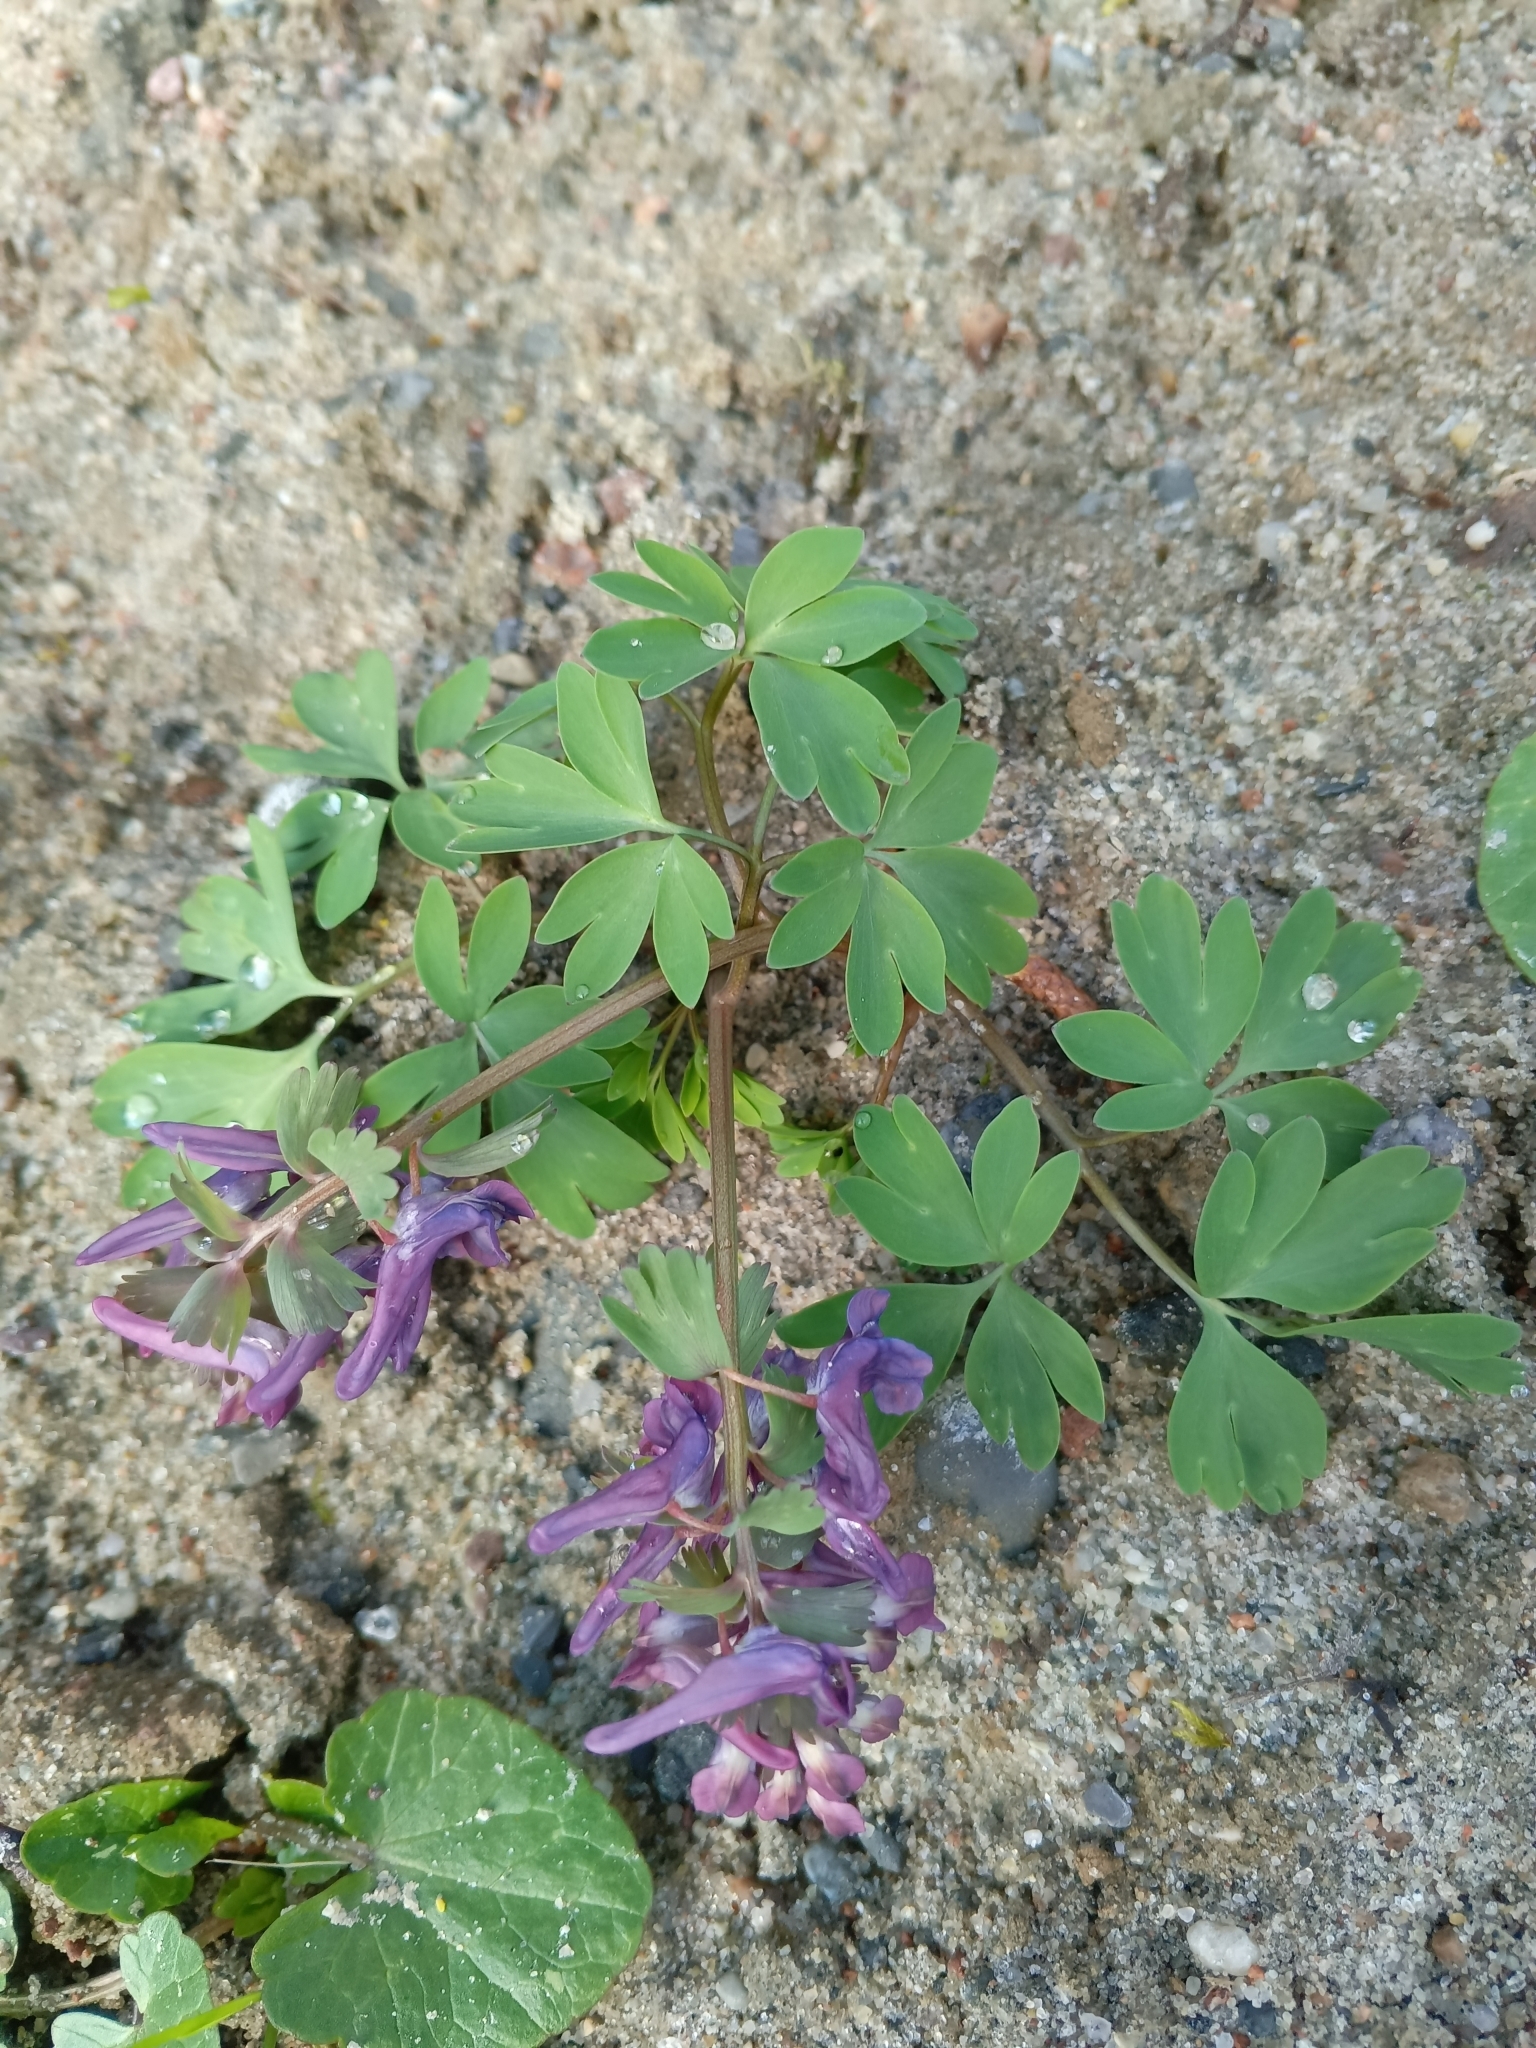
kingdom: Plantae
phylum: Tracheophyta
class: Magnoliopsida
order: Ranunculales
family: Papaveraceae
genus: Corydalis
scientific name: Corydalis solida
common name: Bird-in-a-bush
